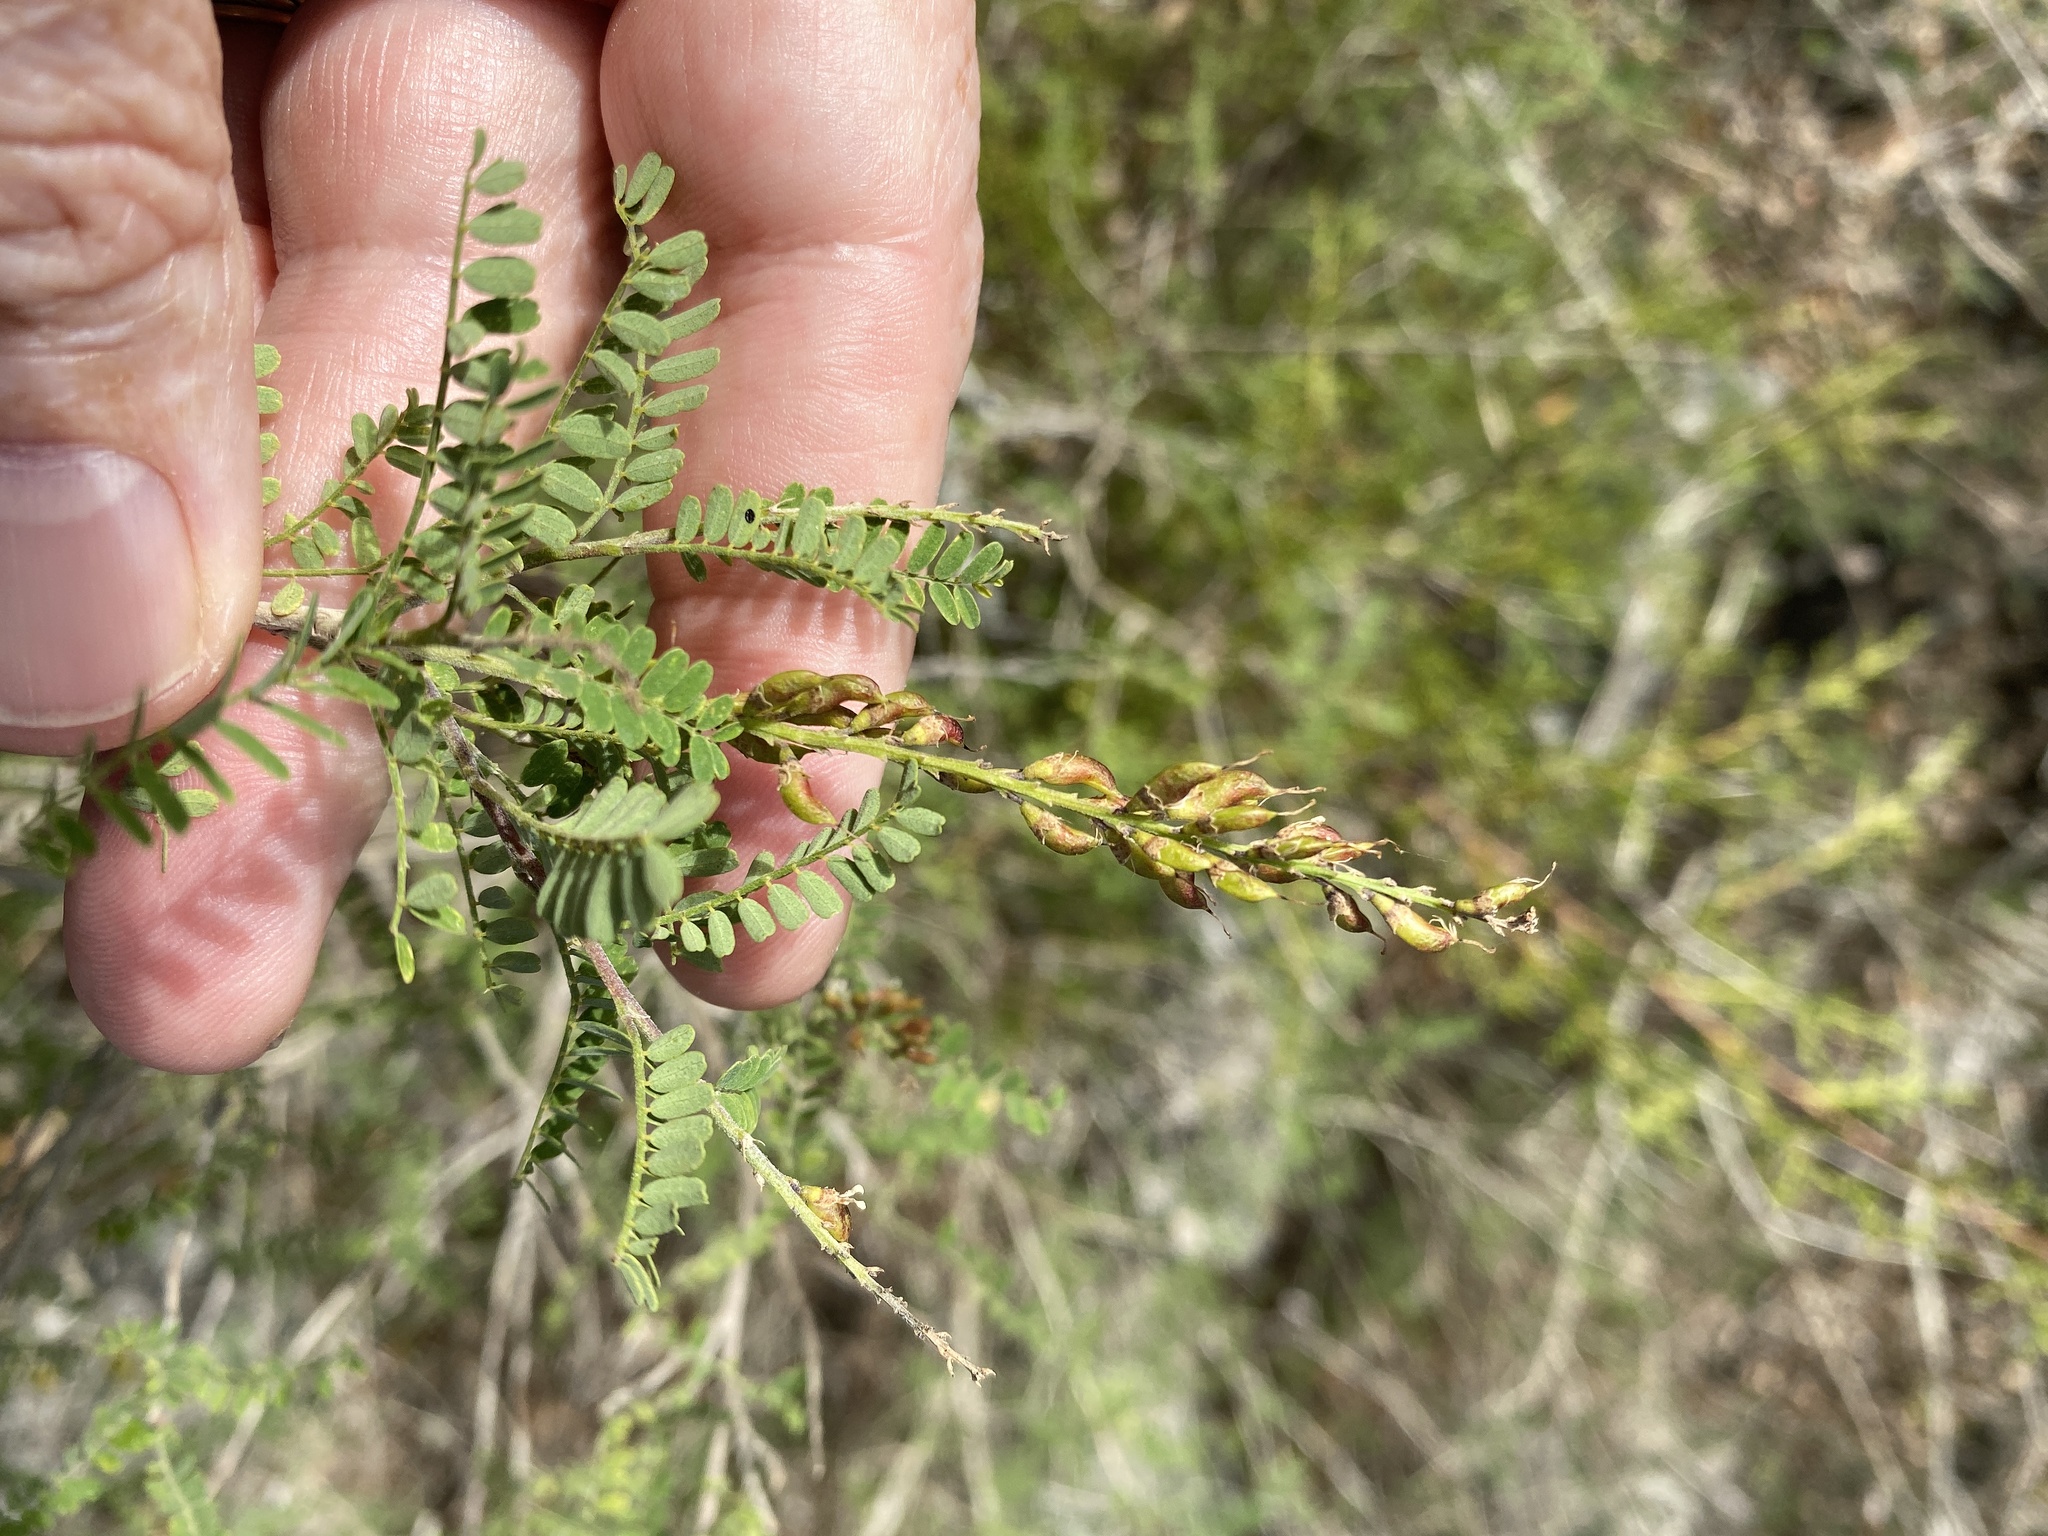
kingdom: Plantae
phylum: Tracheophyta
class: Magnoliopsida
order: Fabales
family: Fabaceae
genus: Eysenhardtia
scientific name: Eysenhardtia texana
